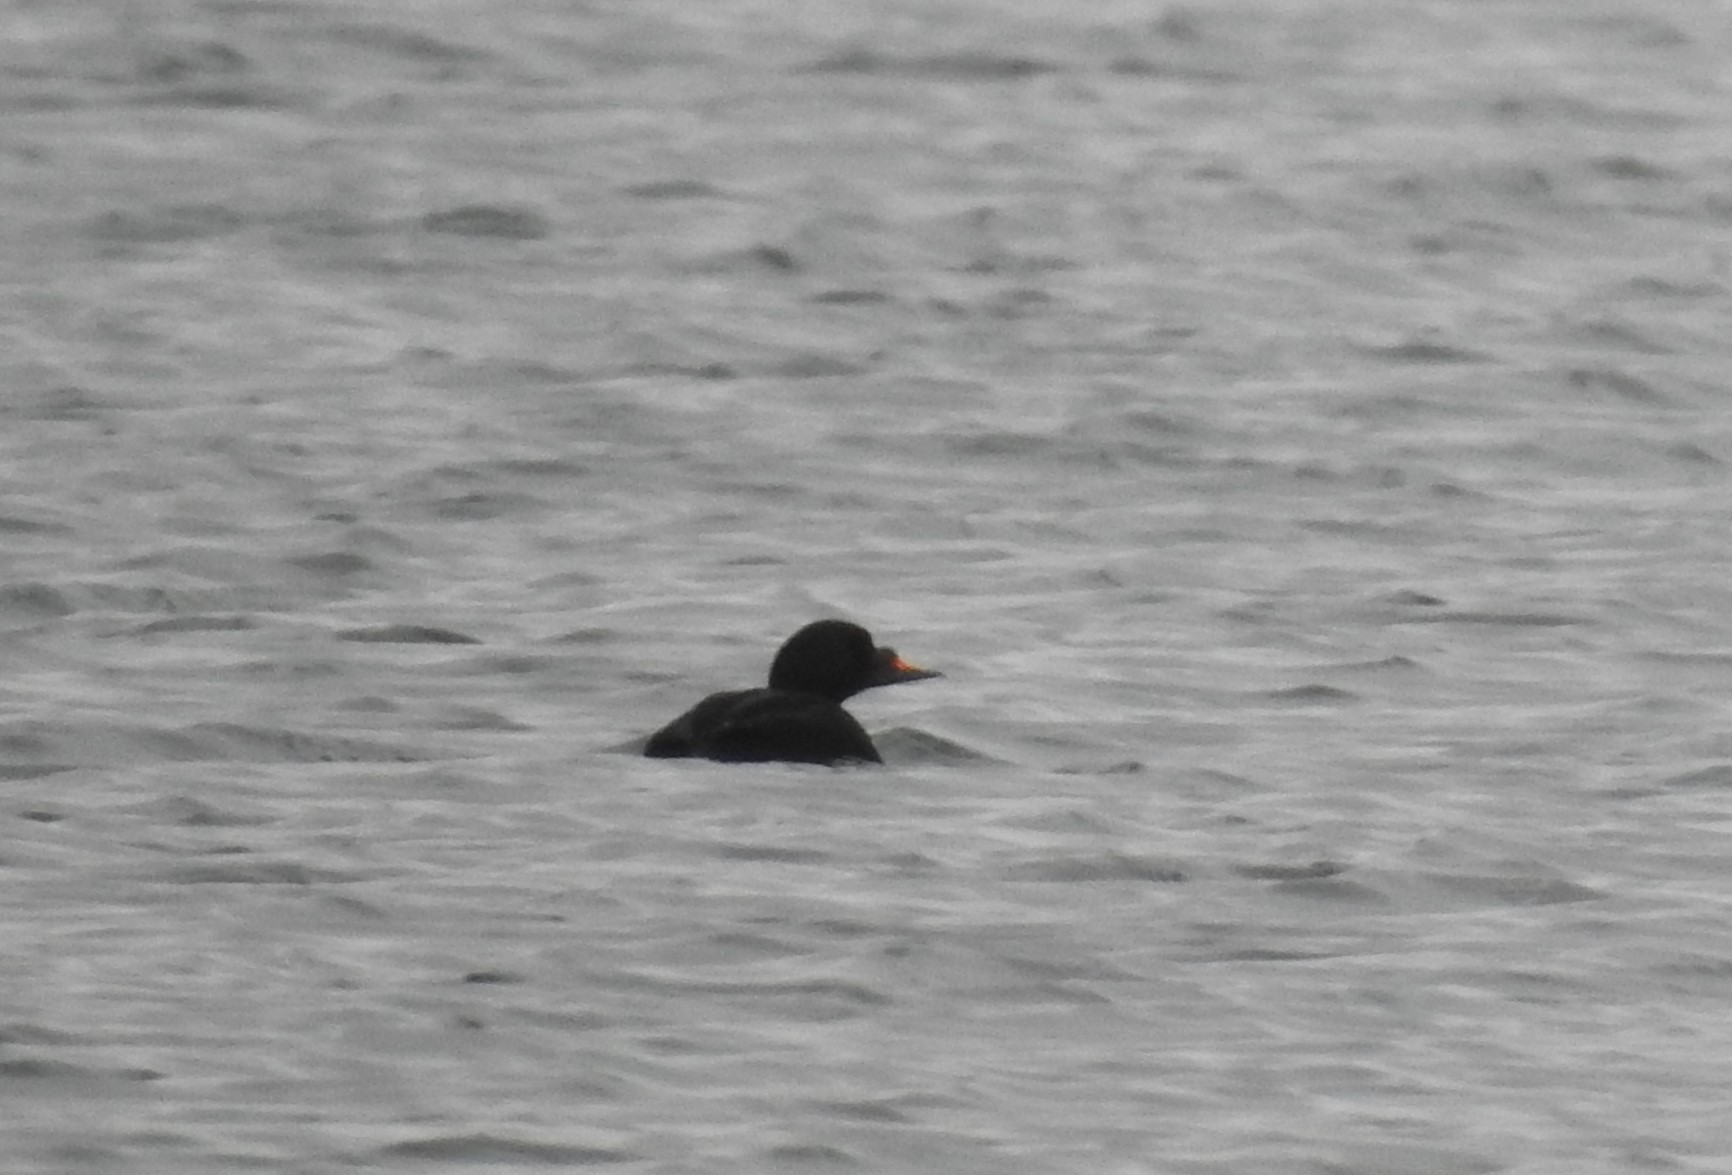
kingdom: Animalia
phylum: Chordata
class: Aves
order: Anseriformes
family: Anatidae
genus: Melanitta
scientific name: Melanitta nigra
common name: Common scoter
